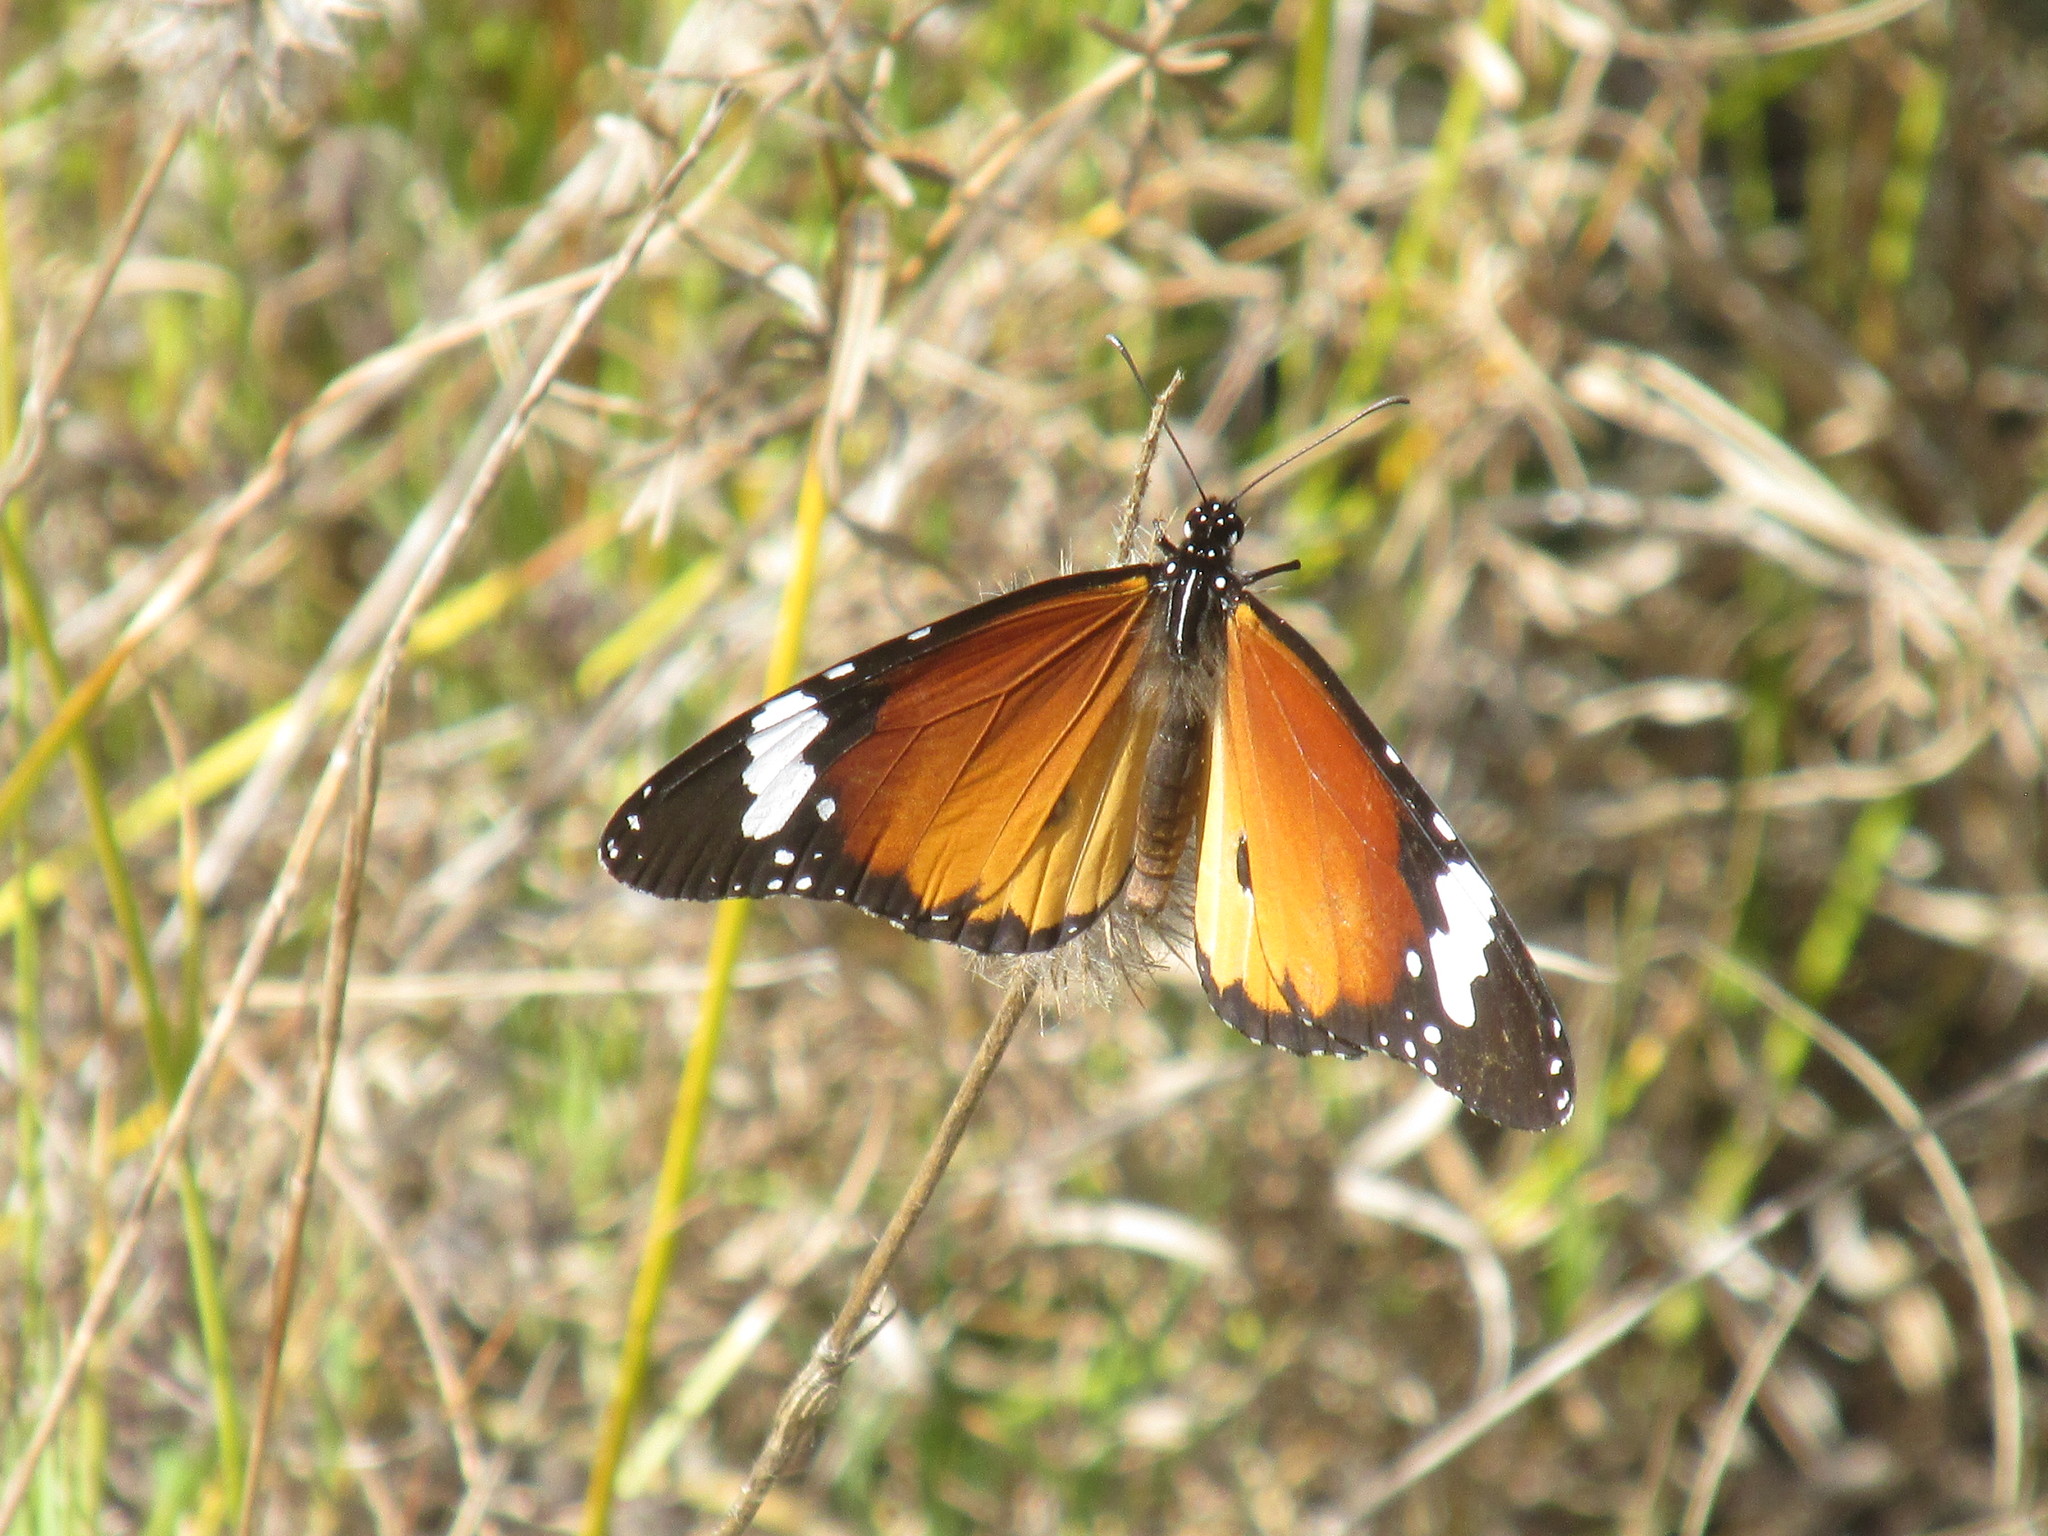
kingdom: Animalia
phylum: Arthropoda
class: Insecta
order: Lepidoptera
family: Nymphalidae
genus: Danaus
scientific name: Danaus chrysippus
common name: Plain tiger
